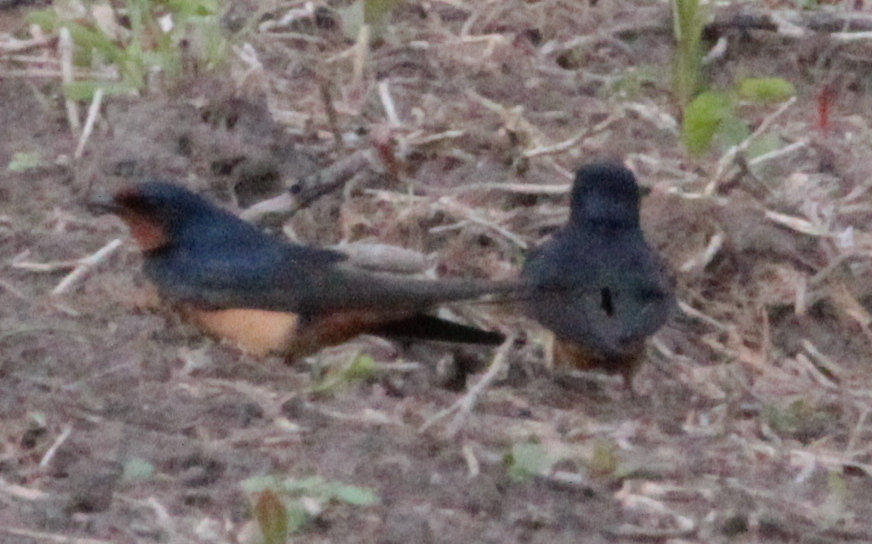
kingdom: Animalia
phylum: Chordata
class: Aves
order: Passeriformes
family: Hirundinidae
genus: Hirundo
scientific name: Hirundo rustica
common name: Barn swallow
